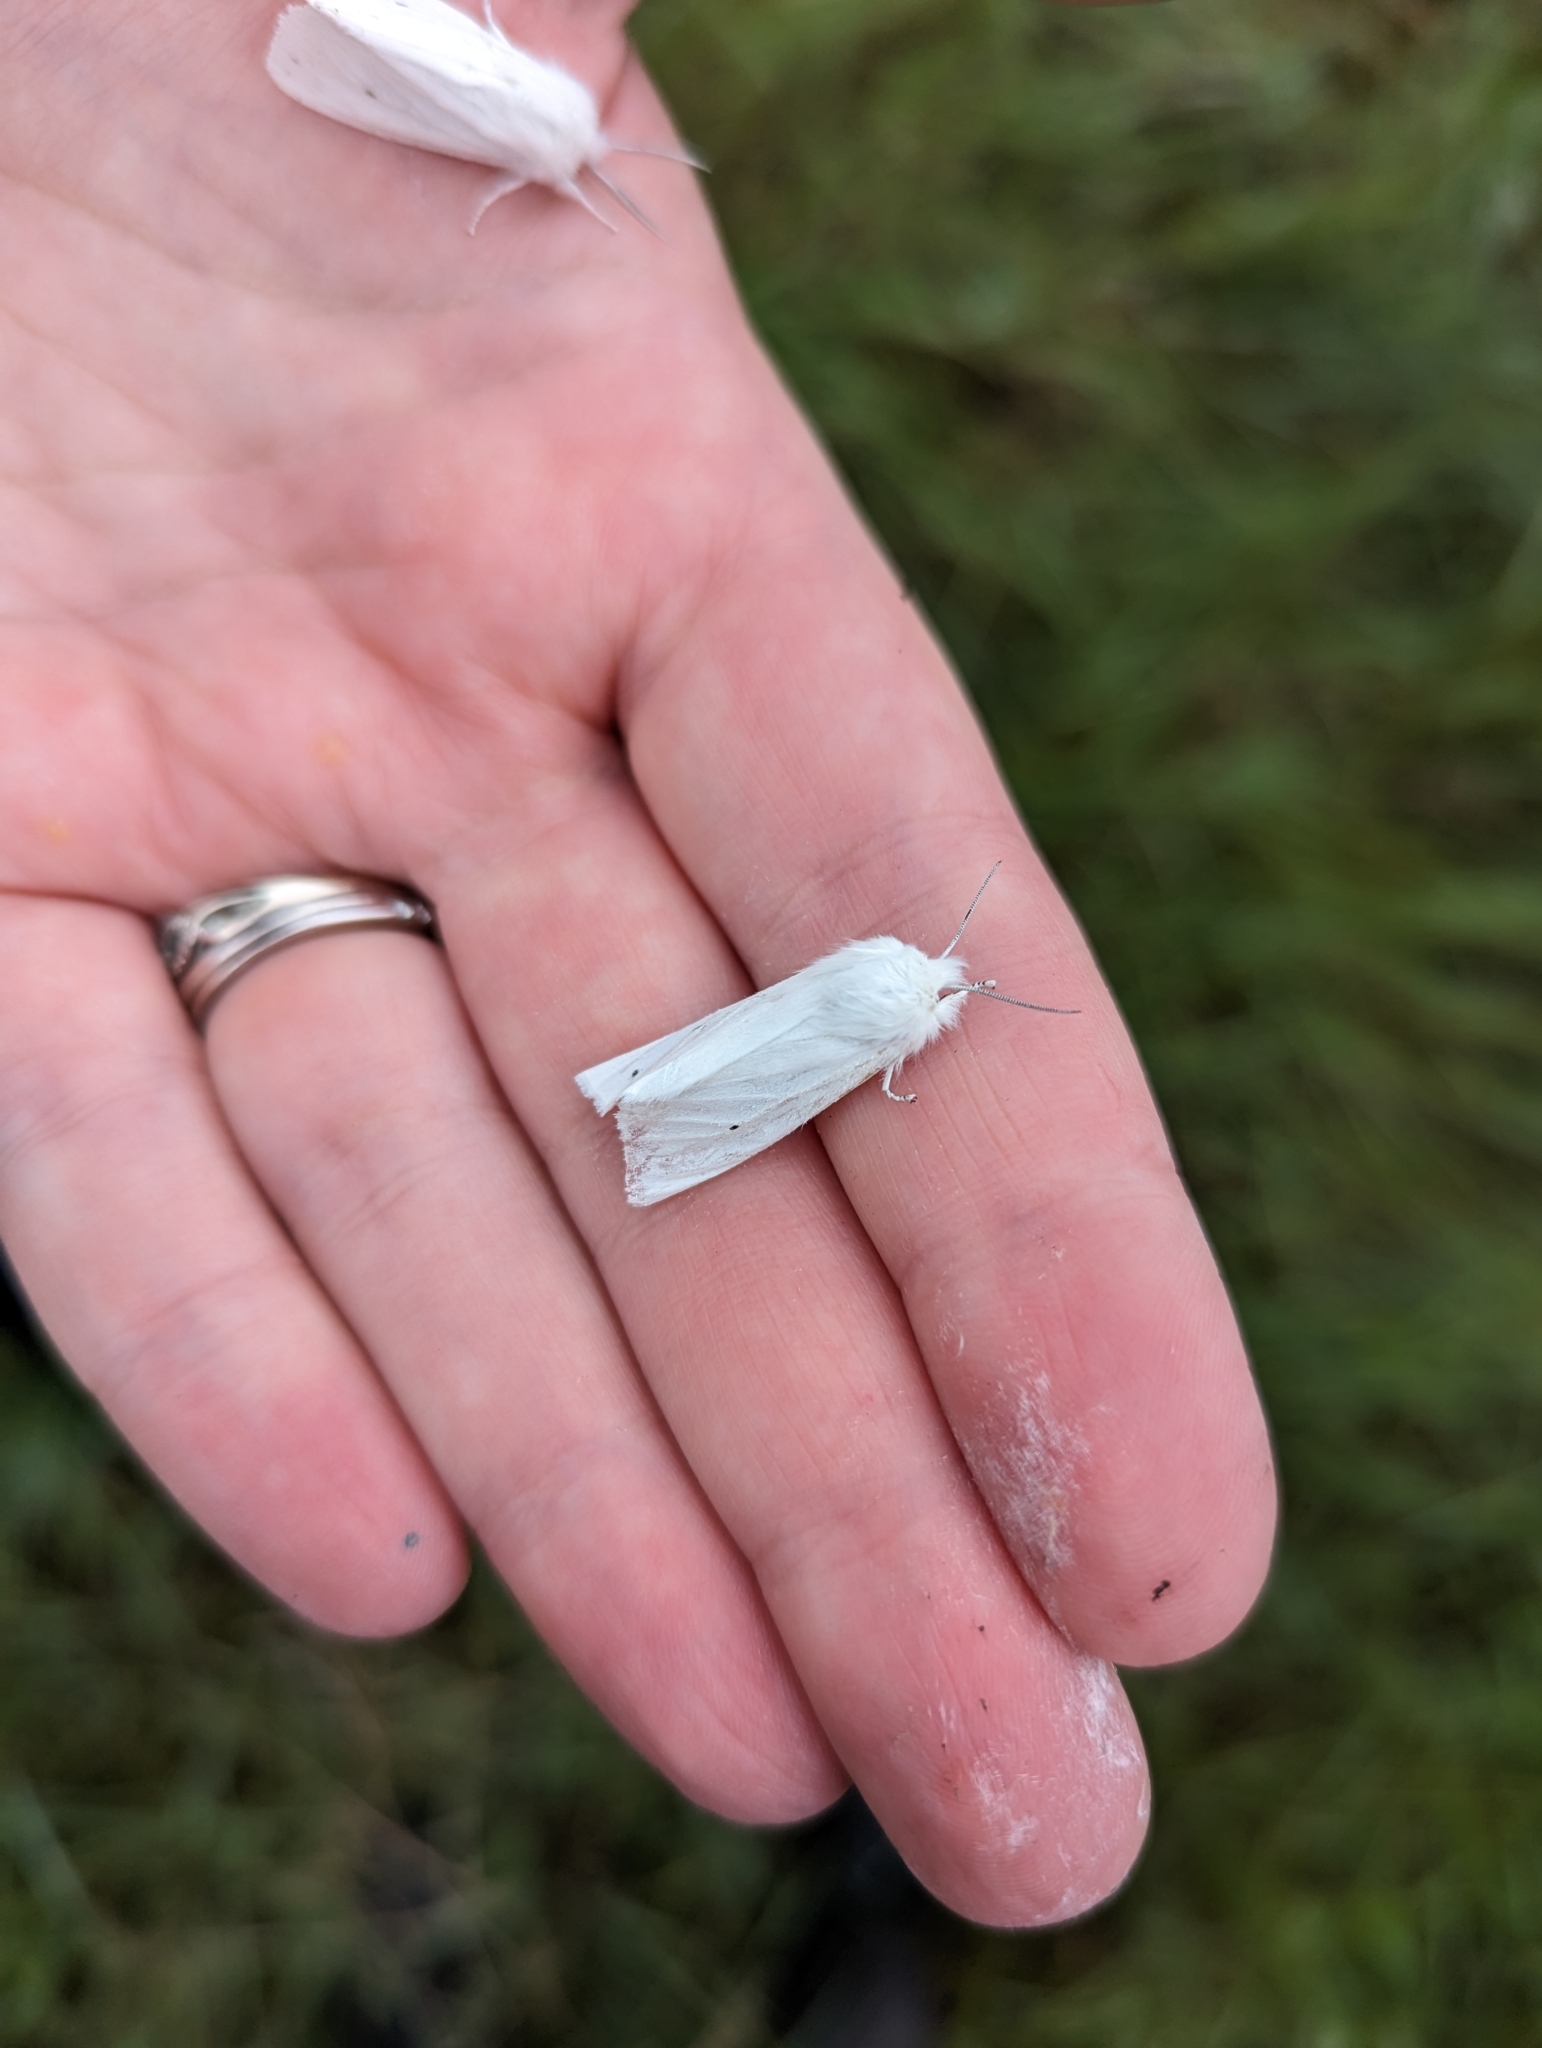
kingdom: Animalia
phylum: Arthropoda
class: Insecta
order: Lepidoptera
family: Erebidae
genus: Spilosoma
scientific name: Spilosoma virginica
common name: Virginia tiger moth
